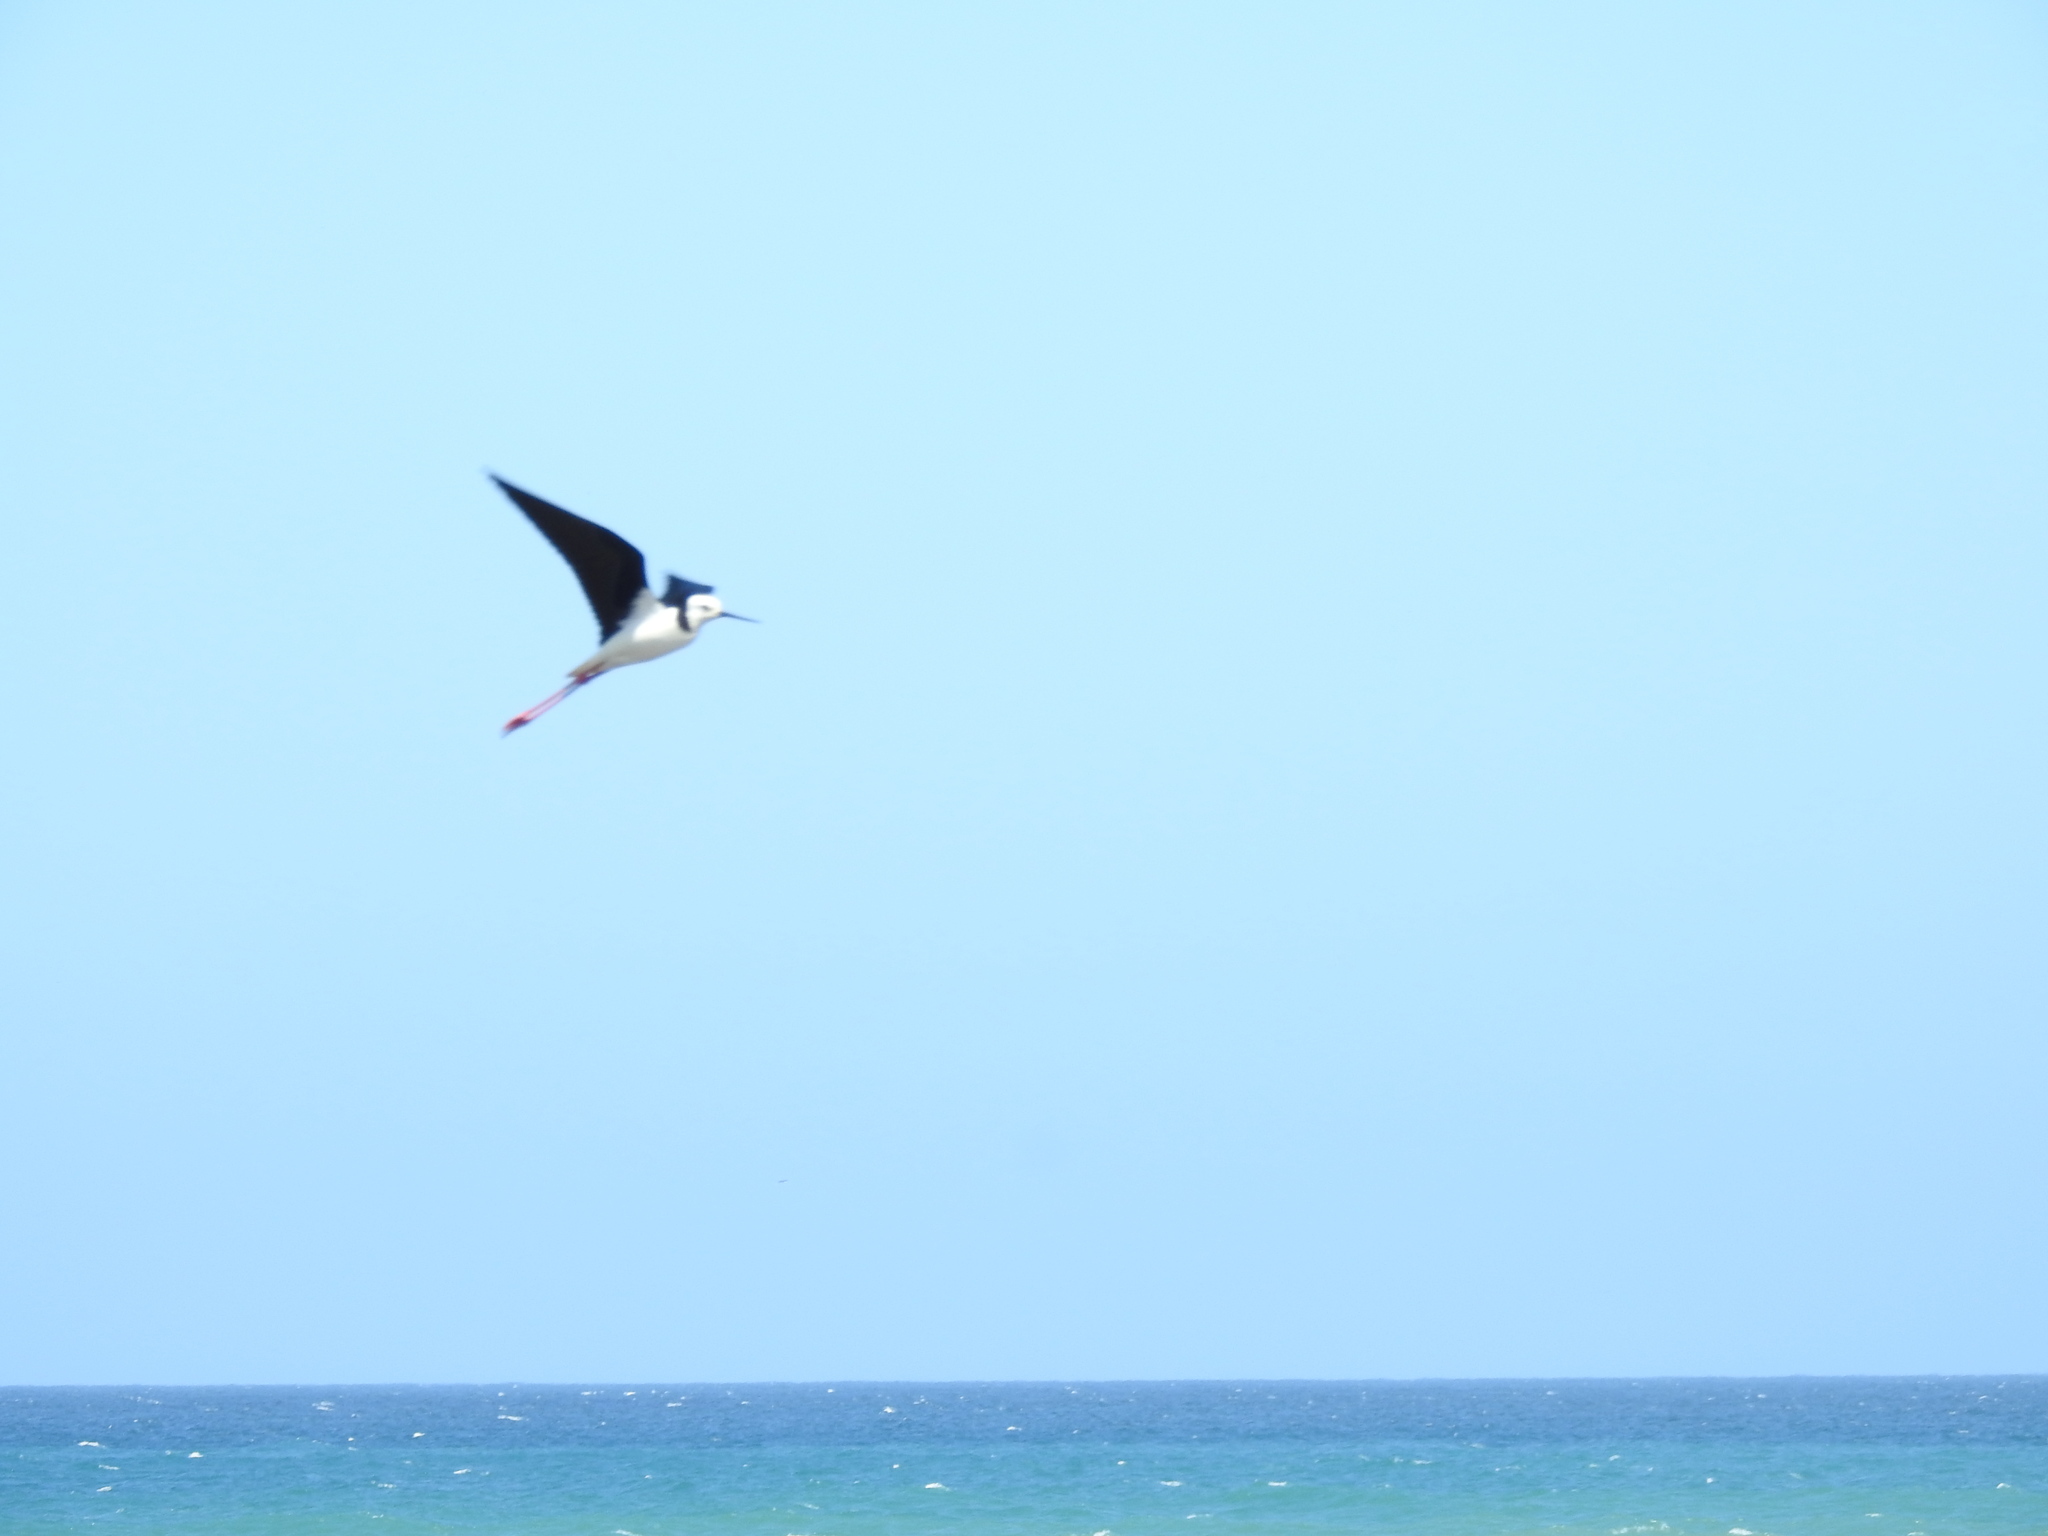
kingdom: Animalia
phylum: Chordata
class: Aves
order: Charadriiformes
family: Recurvirostridae
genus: Himantopus
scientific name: Himantopus leucocephalus
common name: White-headed stilt
